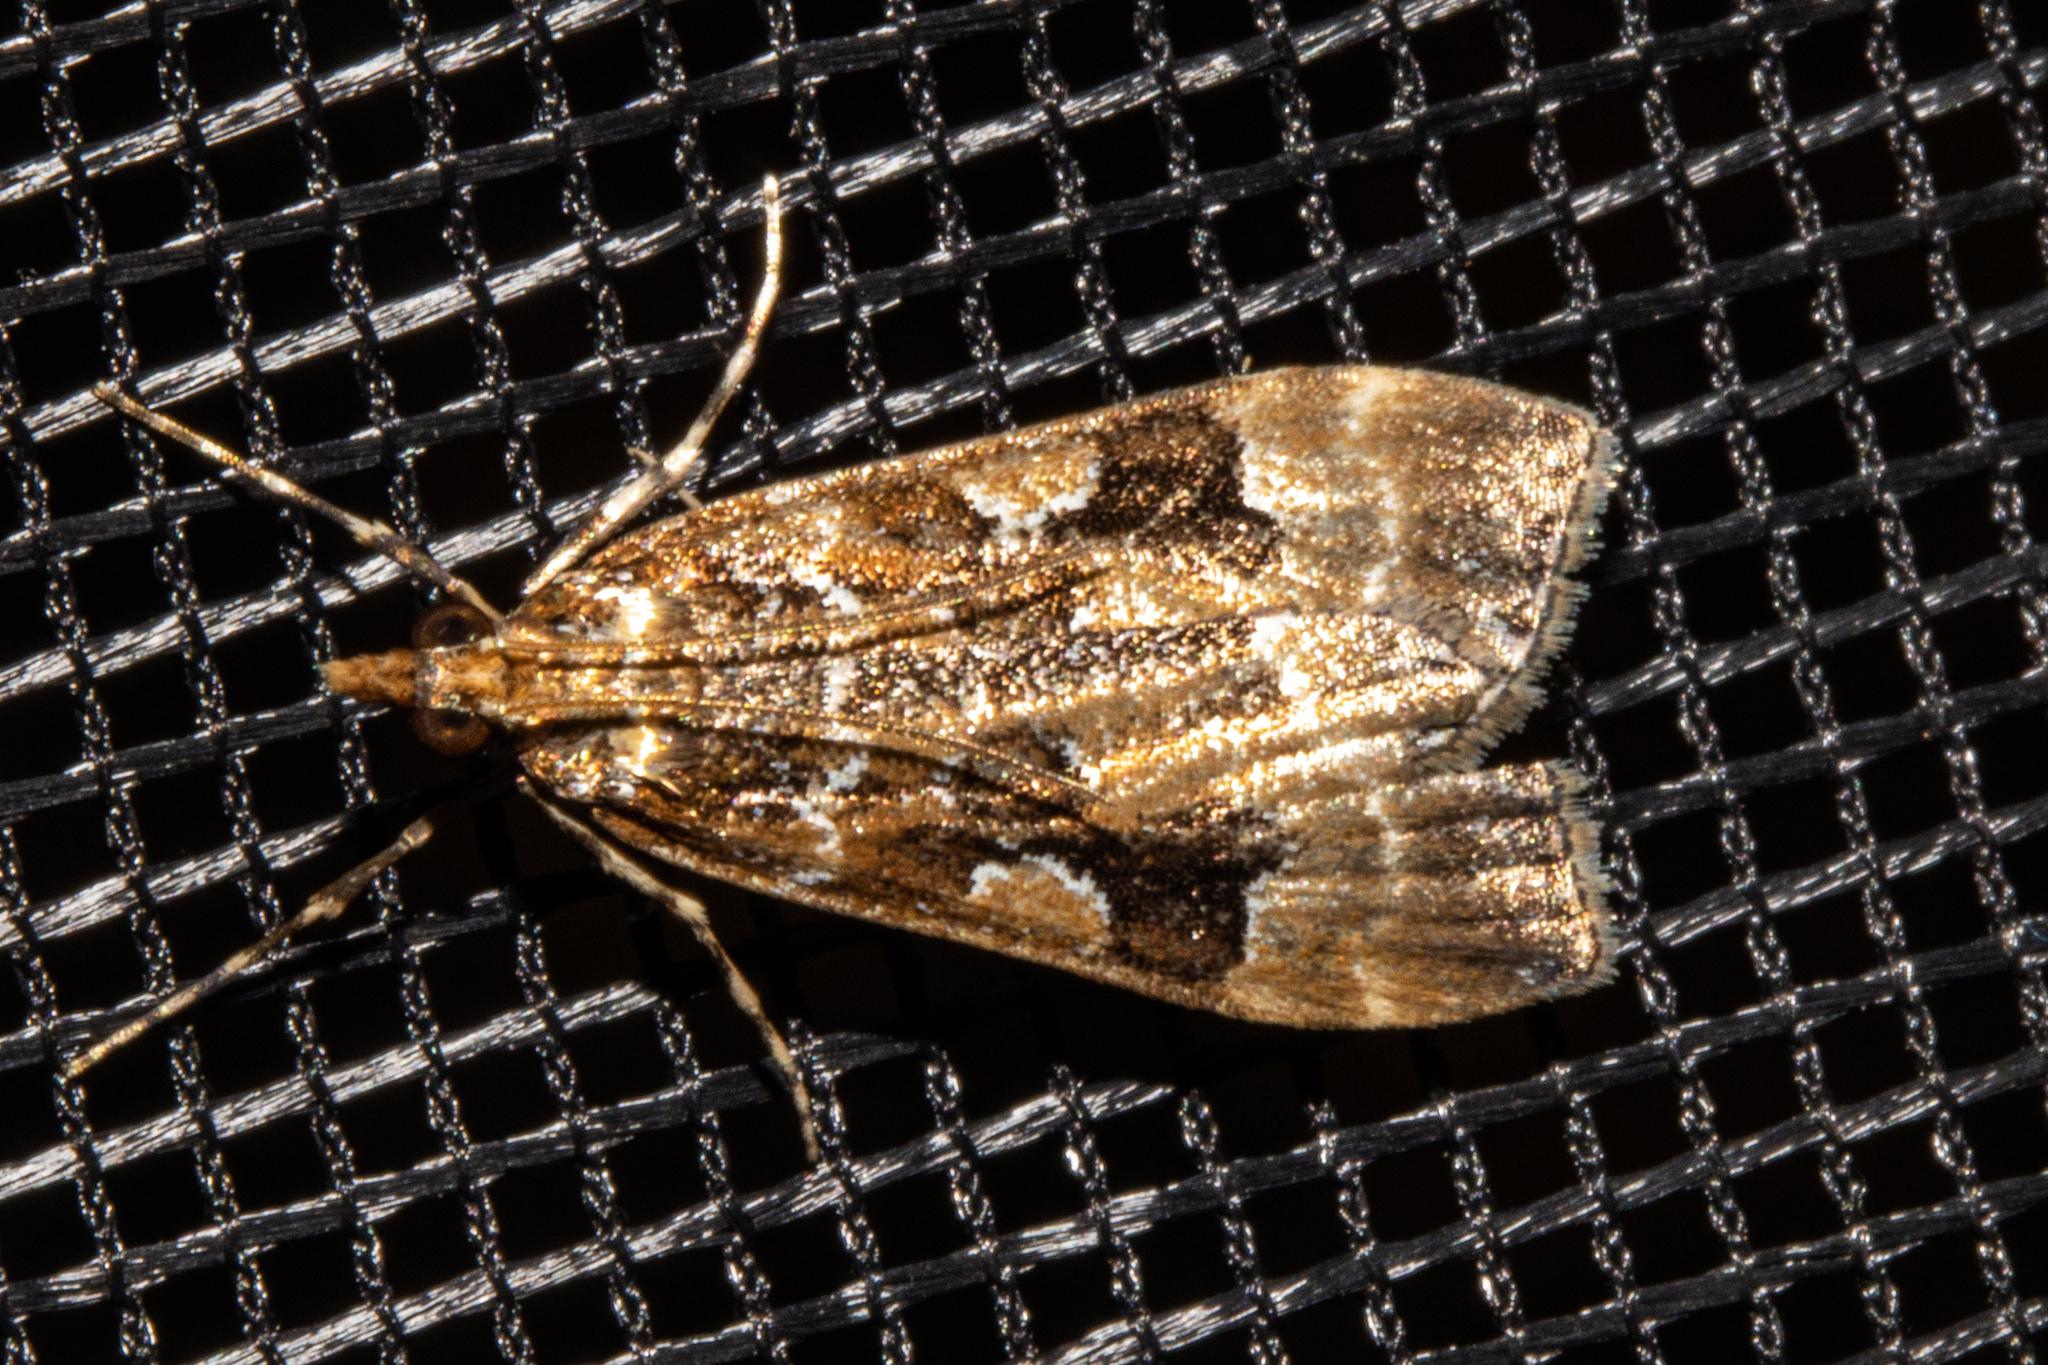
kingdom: Animalia
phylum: Arthropoda
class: Insecta
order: Lepidoptera
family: Crambidae
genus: Scoparia
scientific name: Scoparia ustimacula
